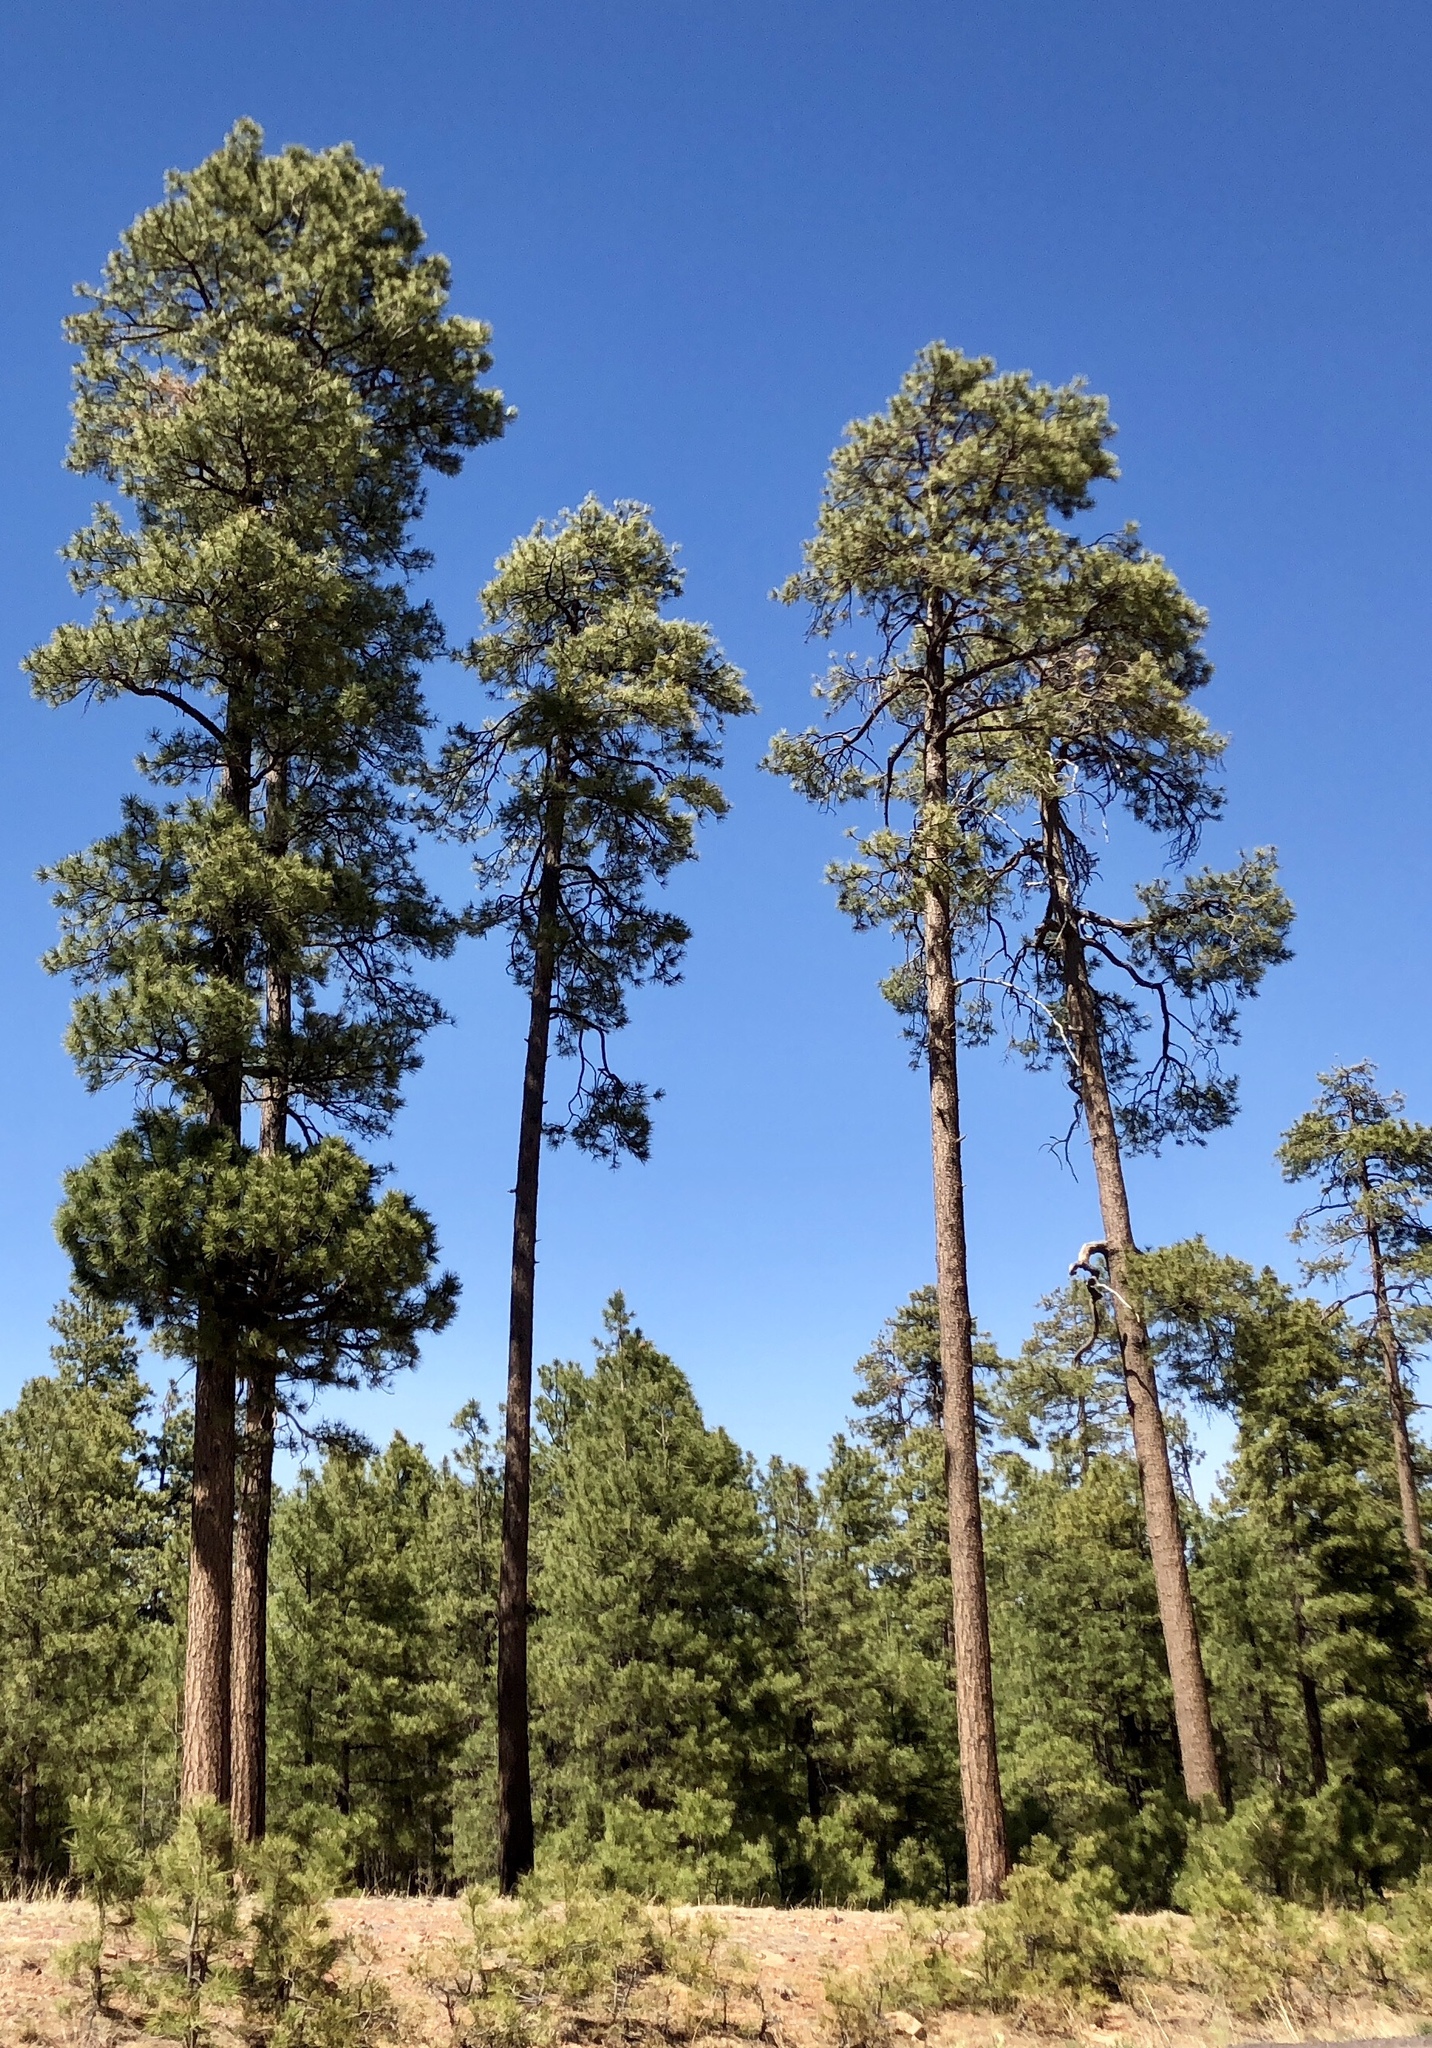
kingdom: Plantae
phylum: Tracheophyta
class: Pinopsida
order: Pinales
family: Pinaceae
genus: Pinus
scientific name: Pinus ponderosa
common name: Western yellow-pine
